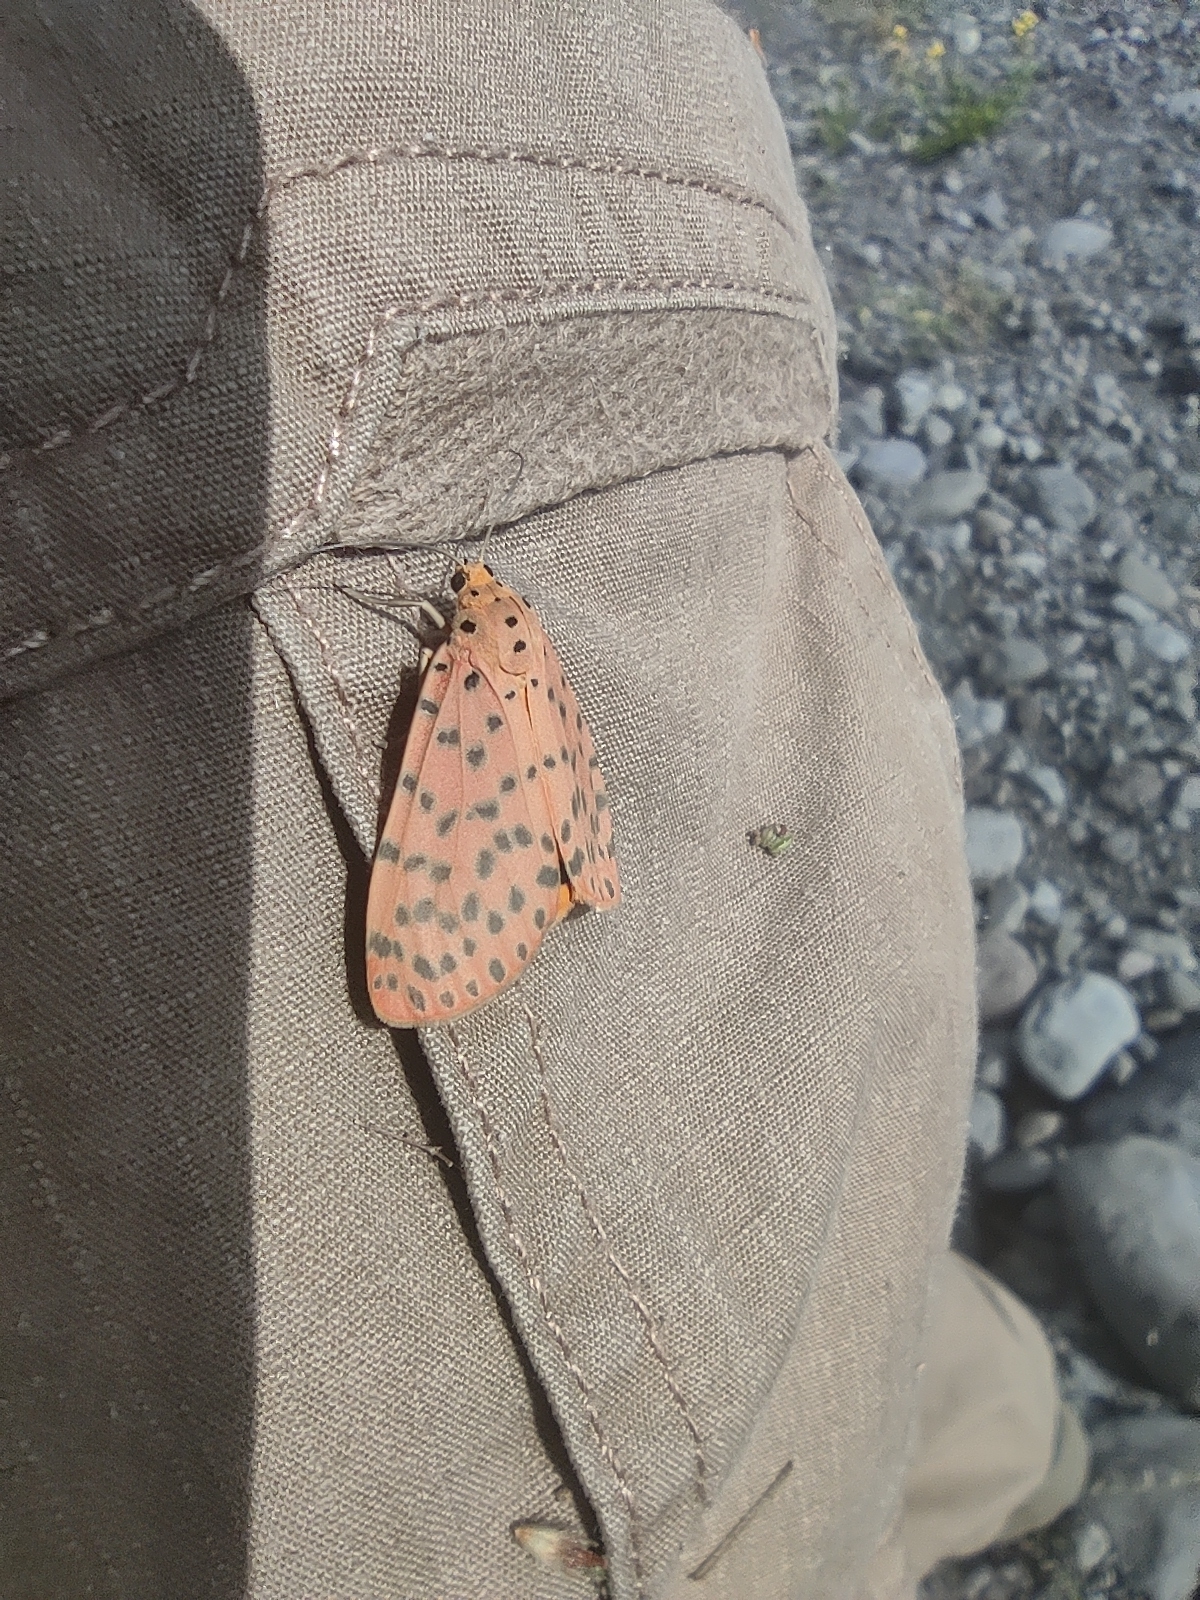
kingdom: Animalia
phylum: Arthropoda
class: Insecta
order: Lepidoptera
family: Erebidae
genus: Argina
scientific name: Argina astrea
